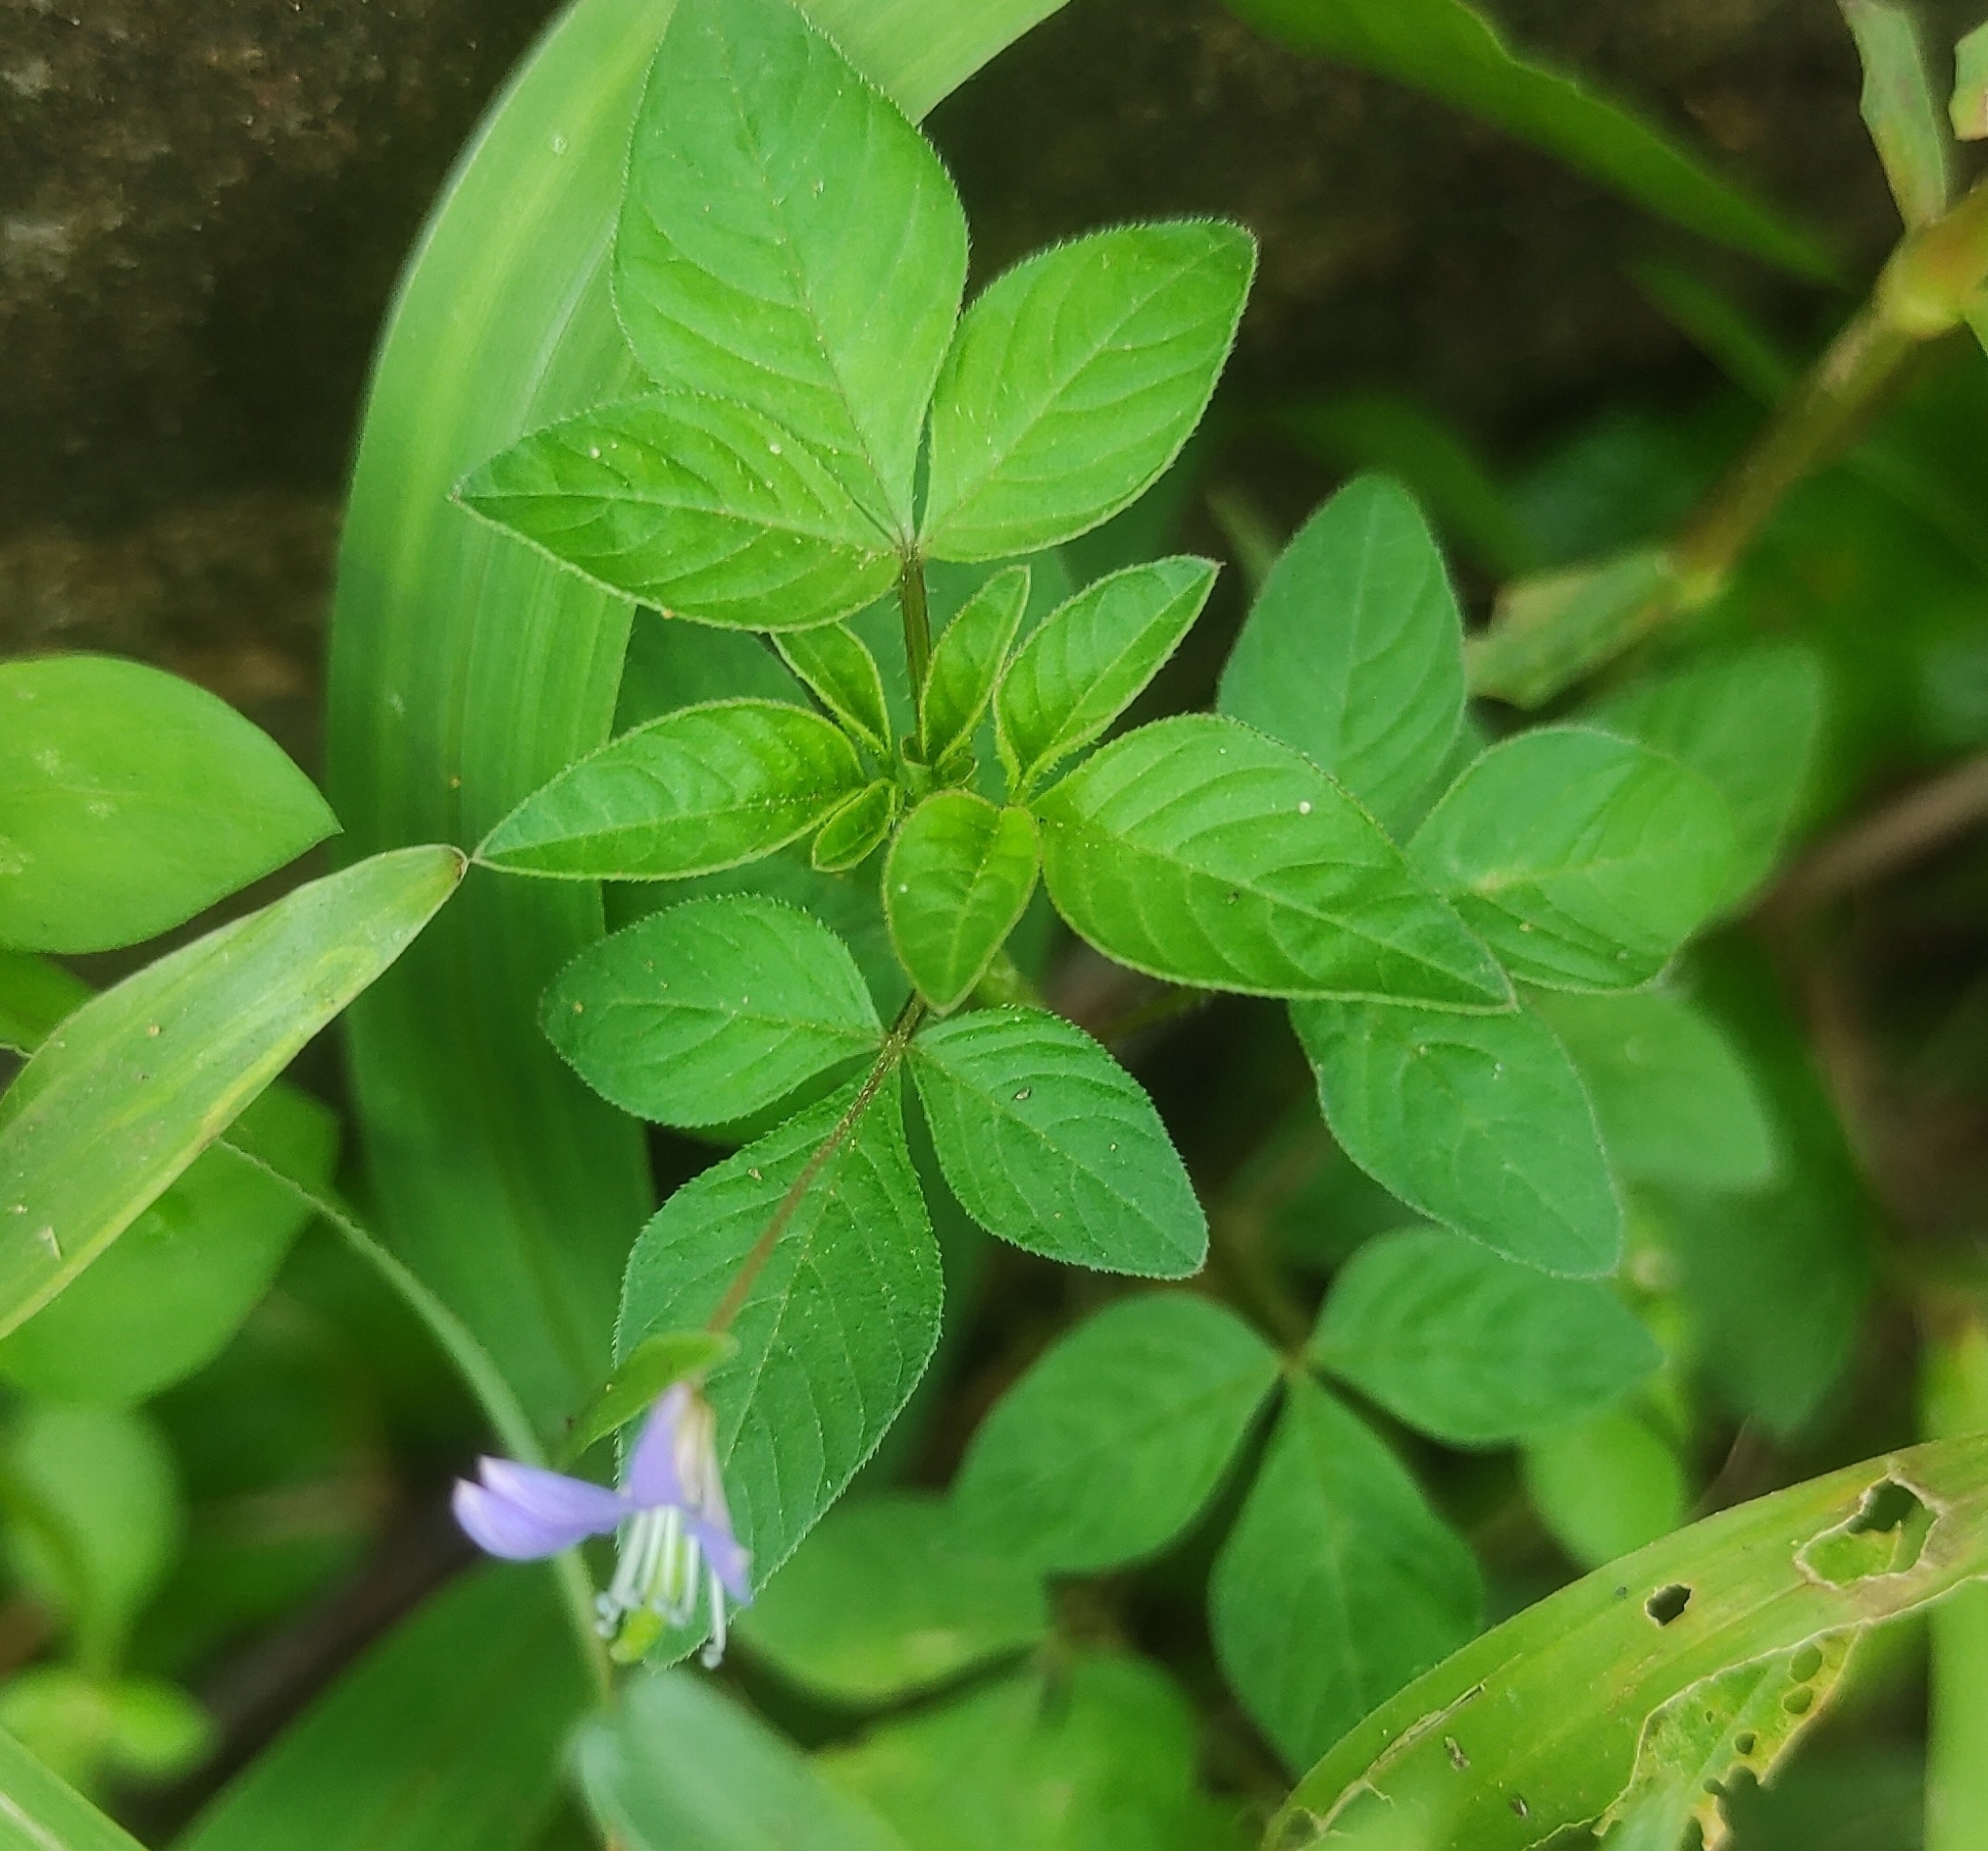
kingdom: Plantae
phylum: Tracheophyta
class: Magnoliopsida
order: Brassicales
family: Cleomaceae
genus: Sieruela
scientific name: Sieruela rutidosperma
